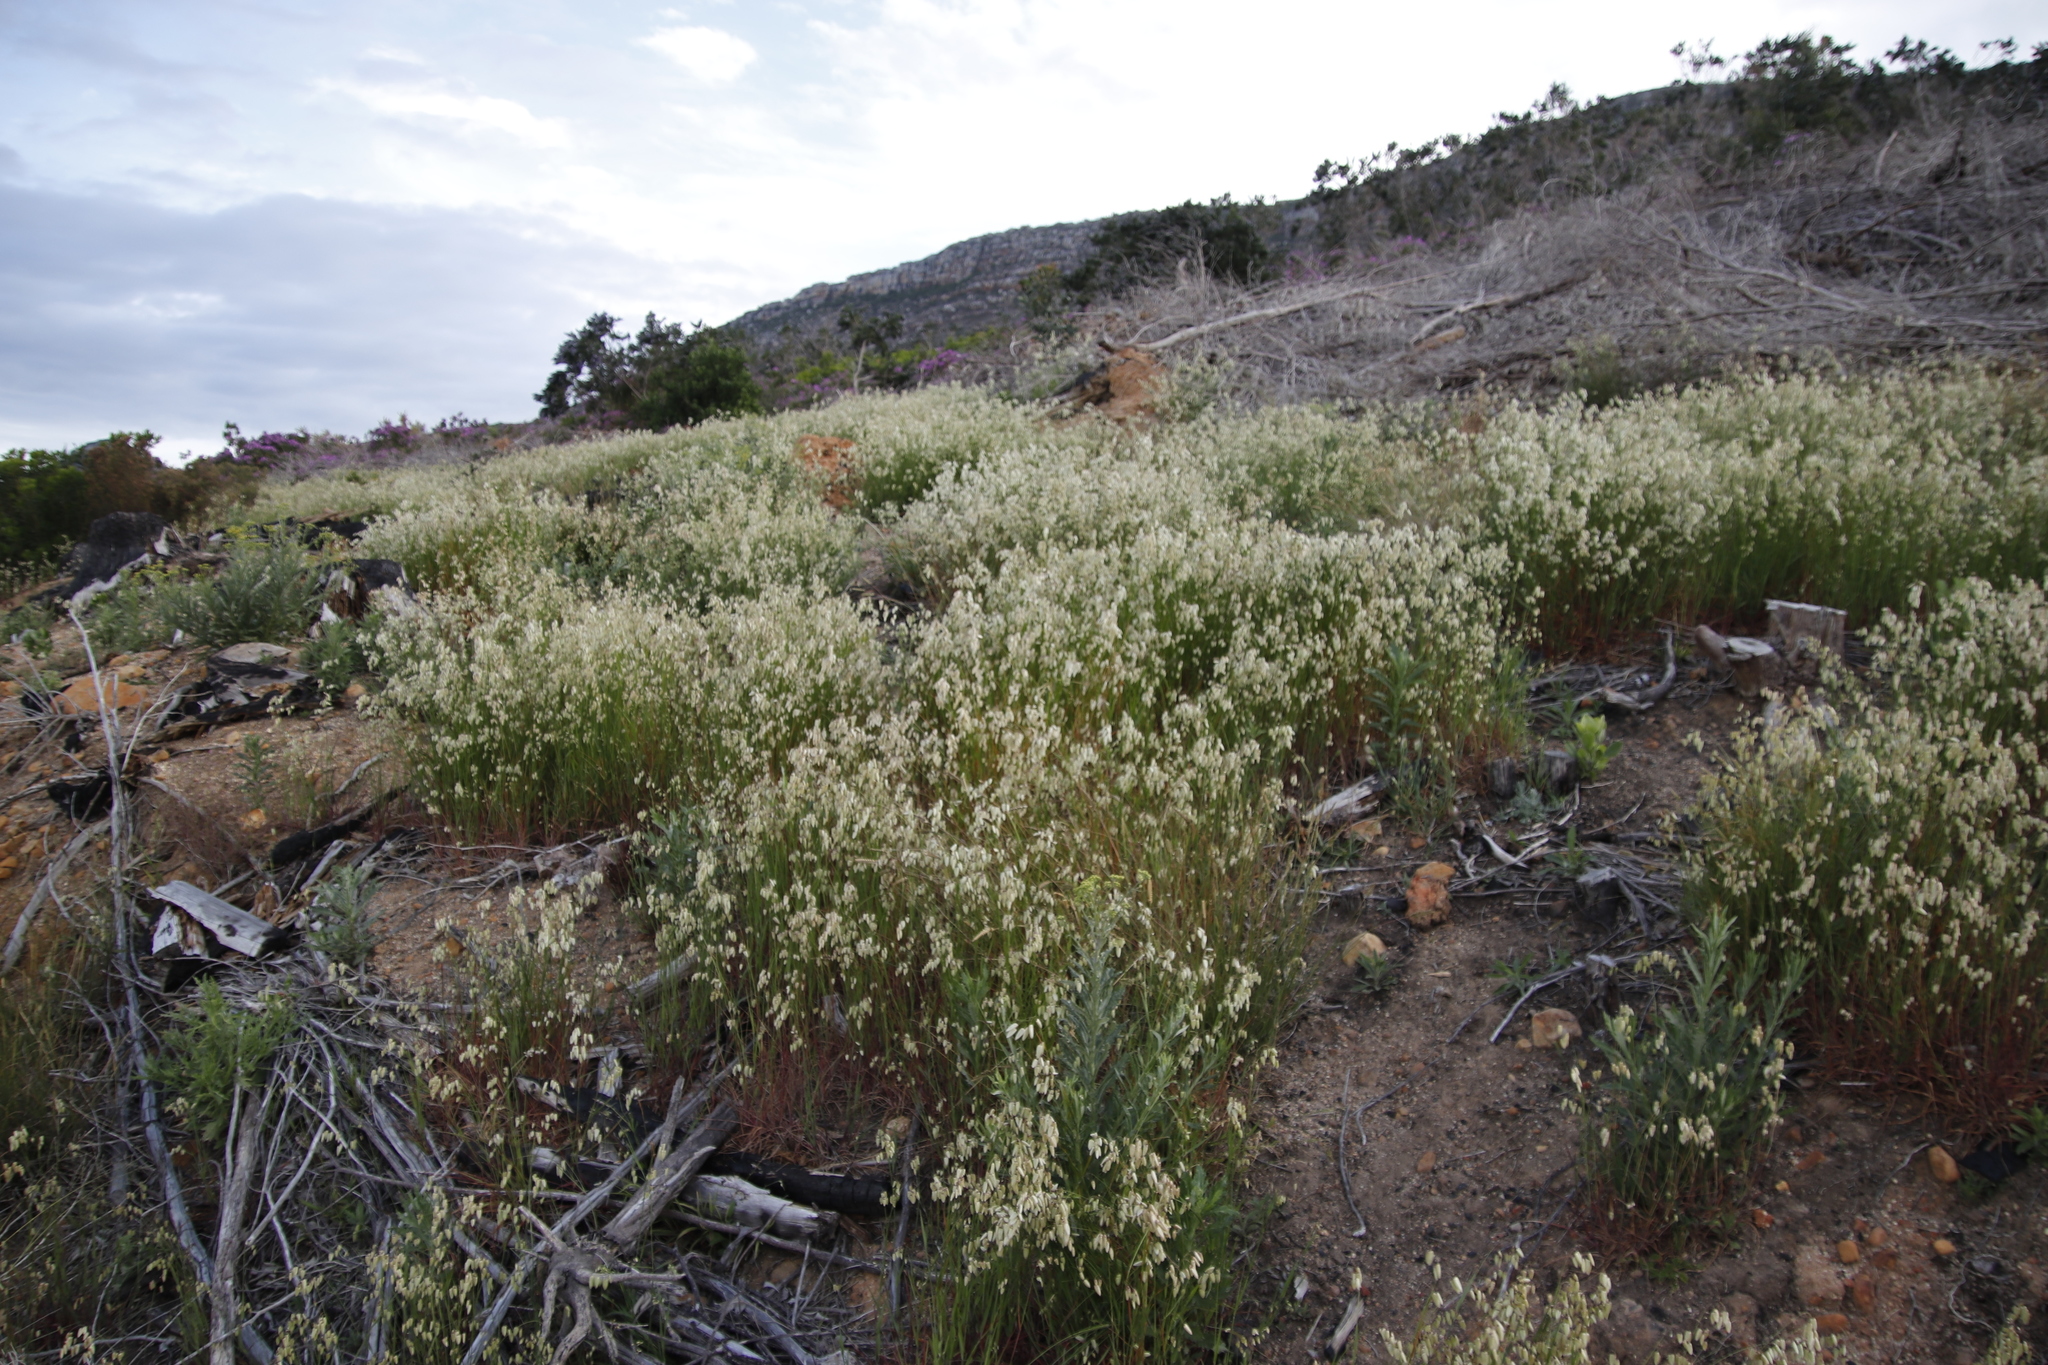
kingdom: Plantae
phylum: Tracheophyta
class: Liliopsida
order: Poales
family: Poaceae
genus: Briza
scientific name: Briza maxima
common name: Big quakinggrass
